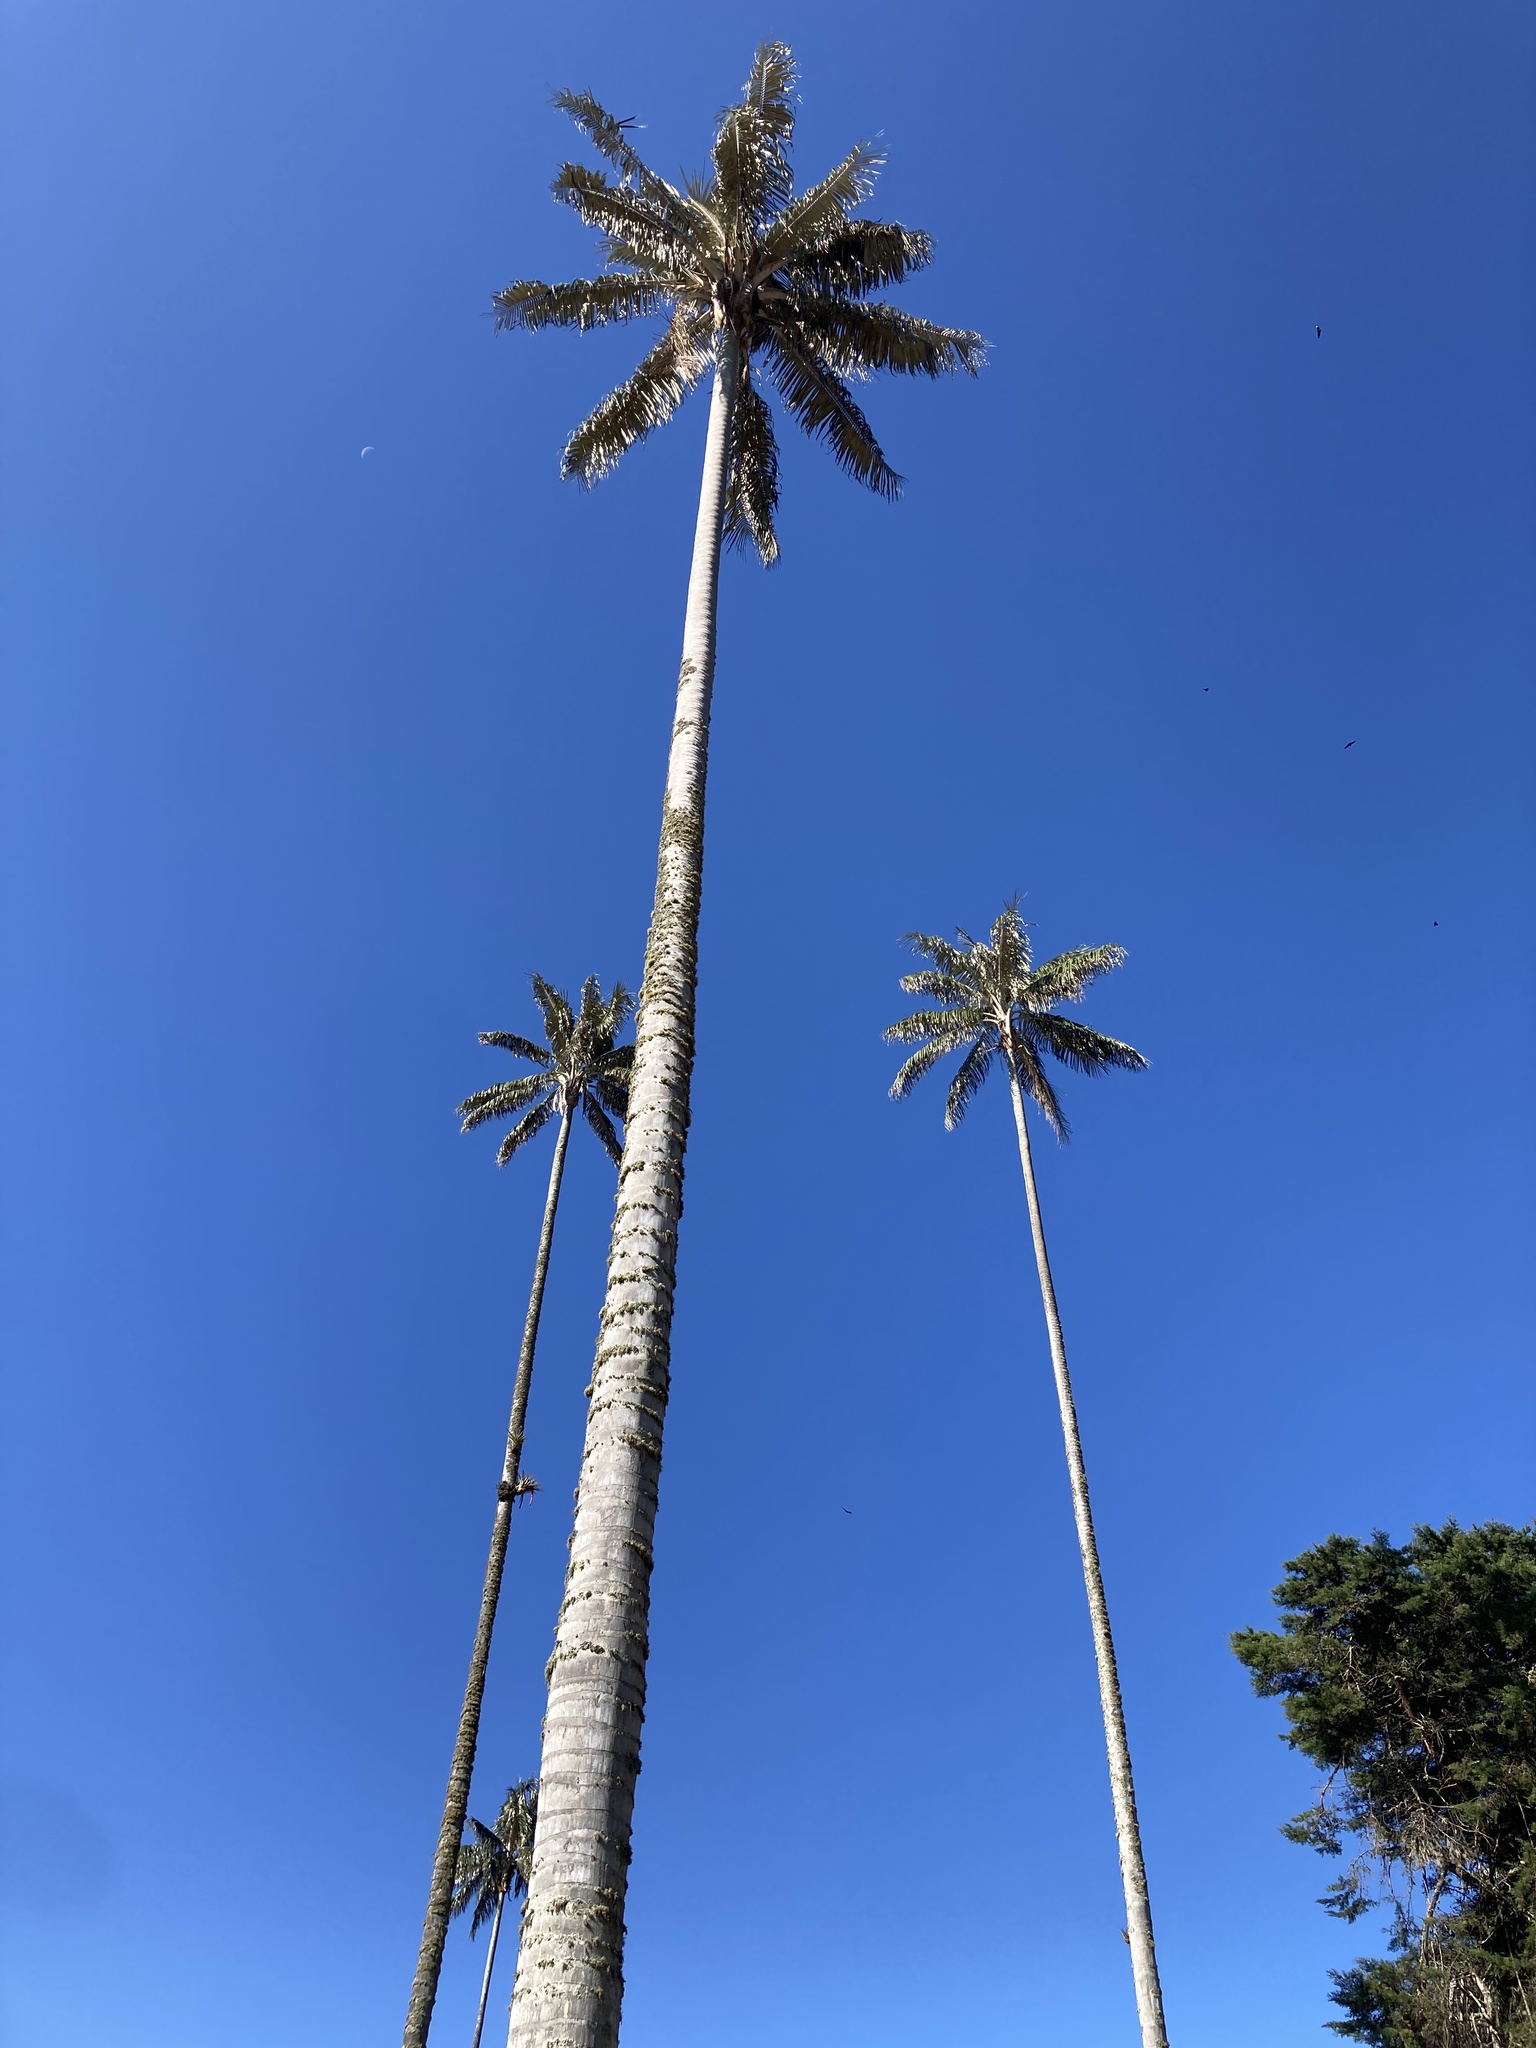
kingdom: Plantae
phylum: Tracheophyta
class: Liliopsida
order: Arecales
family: Arecaceae
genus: Ceroxylon
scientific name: Ceroxylon quindiuense
